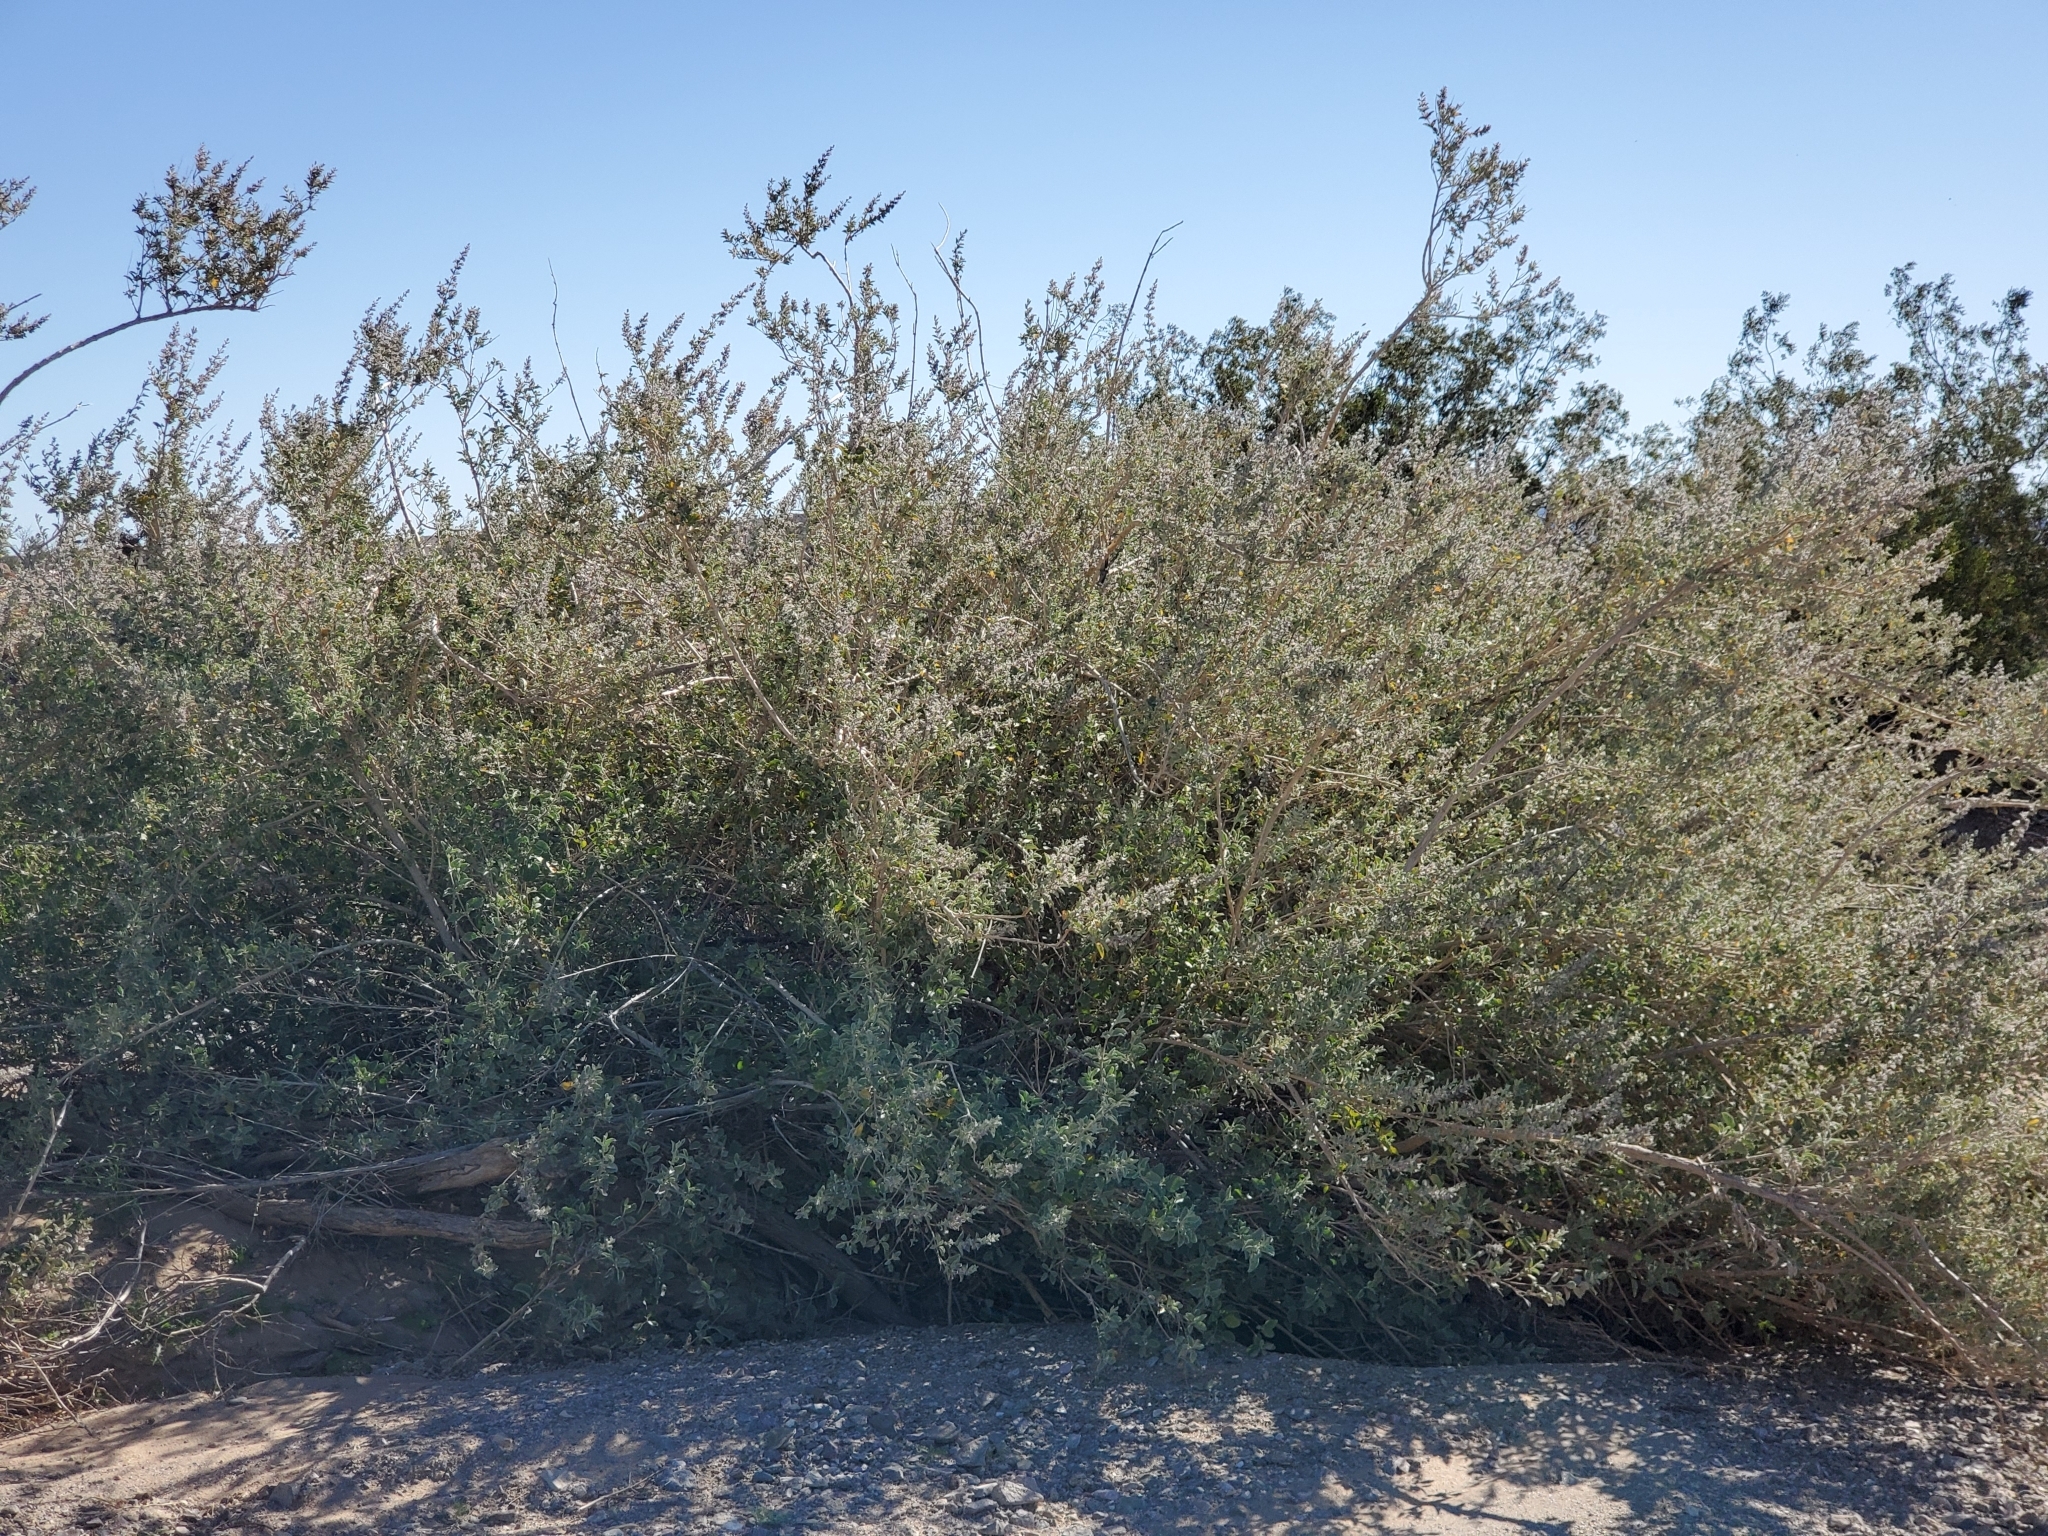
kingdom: Plantae
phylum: Tracheophyta
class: Magnoliopsida
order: Lamiales
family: Lamiaceae
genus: Condea
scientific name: Condea emoryi
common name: Chia
